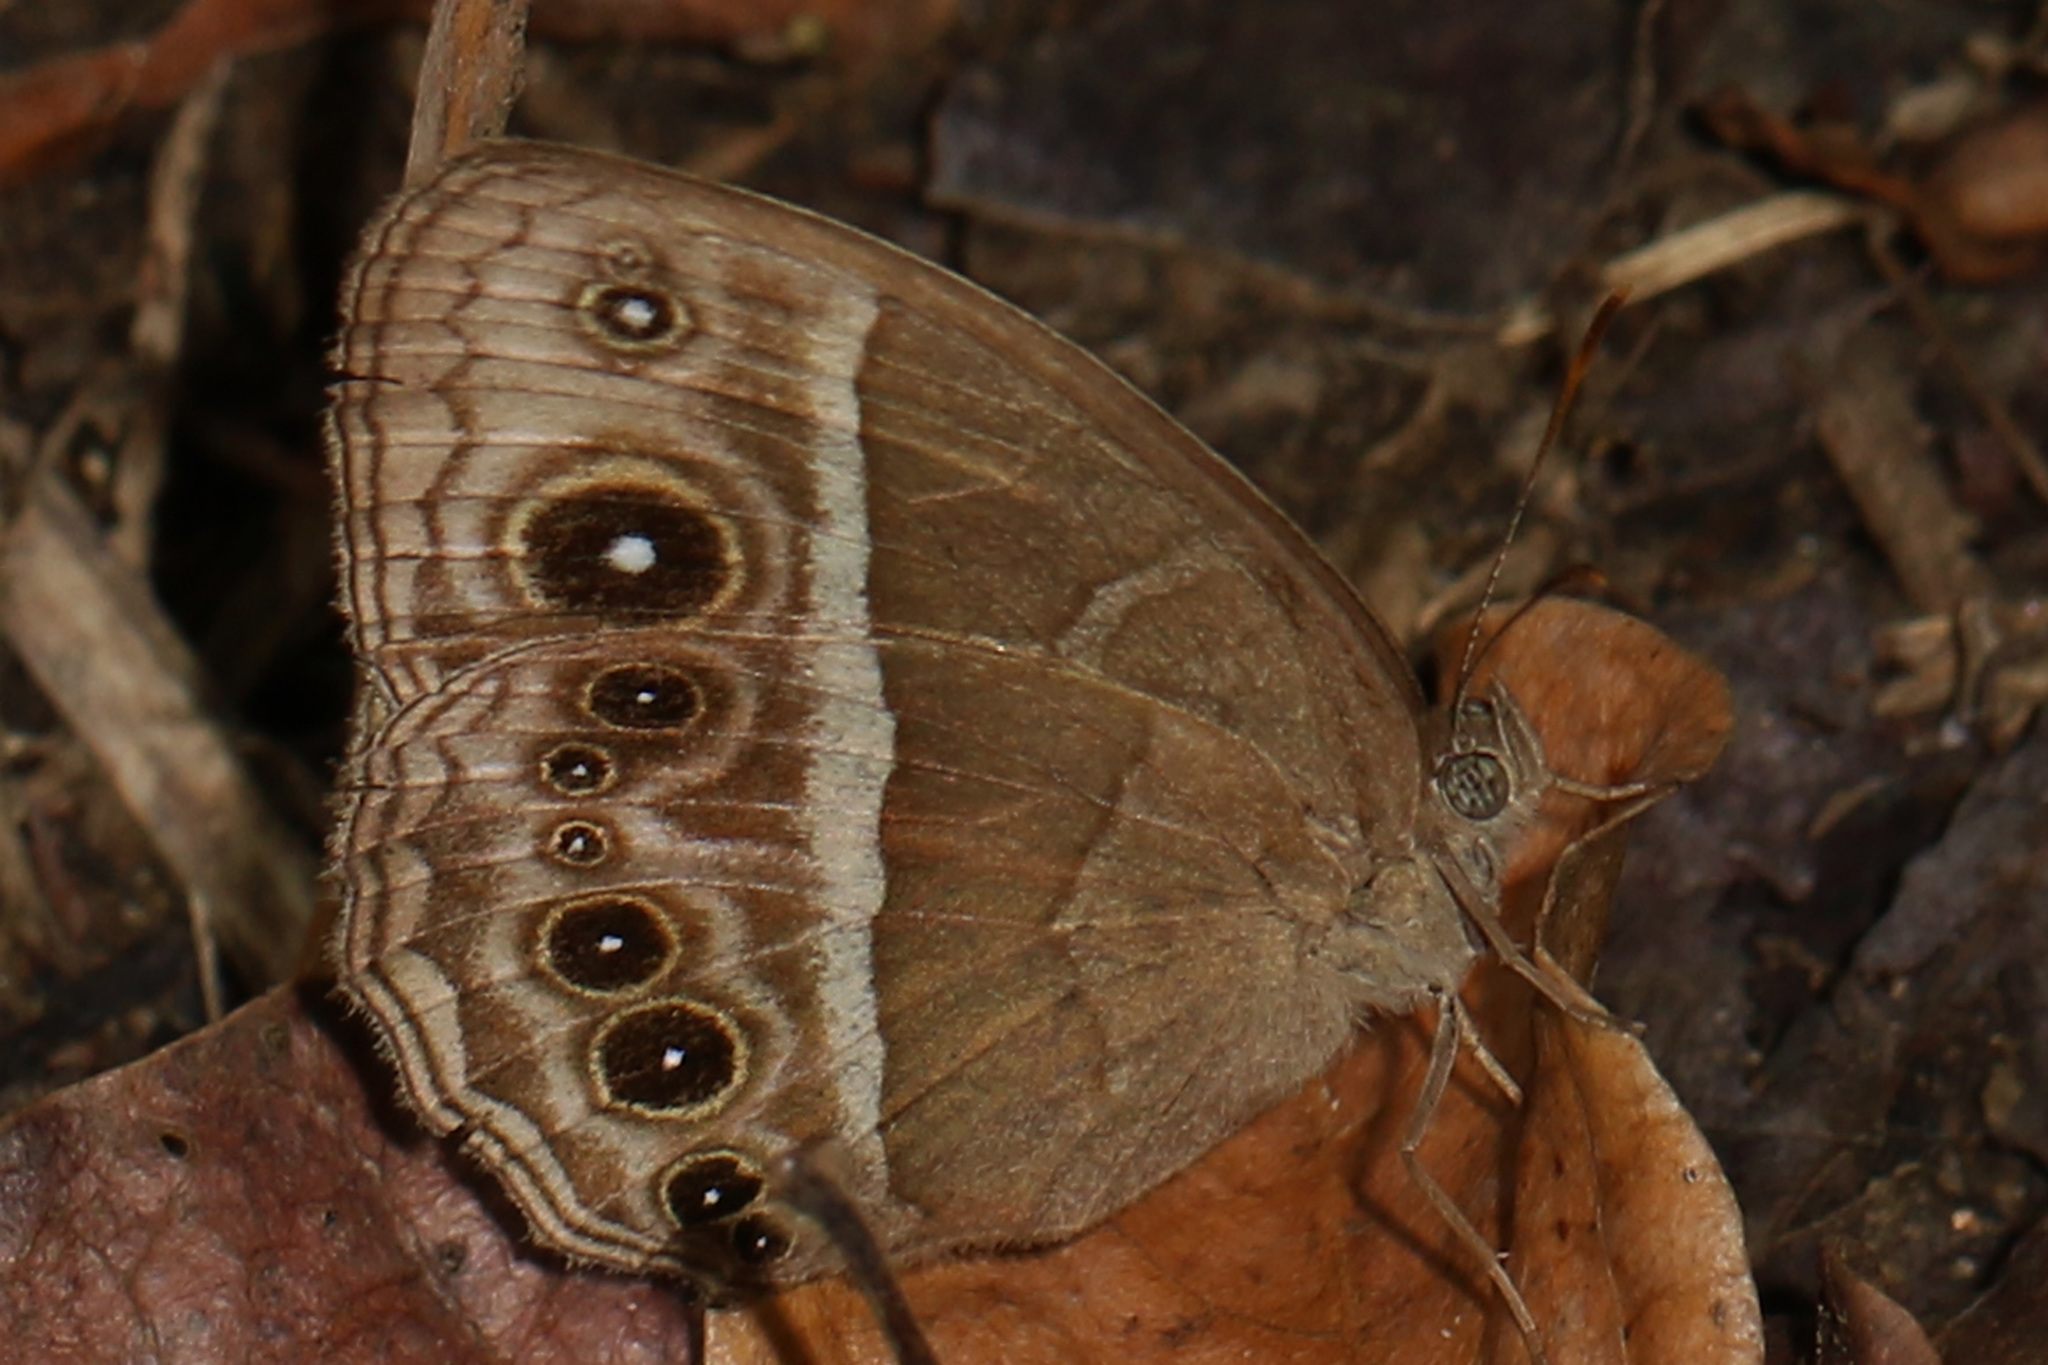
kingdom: Animalia
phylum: Arthropoda
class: Insecta
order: Lepidoptera
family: Nymphalidae
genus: Mycalesis
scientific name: Mycalesis rhacotis
